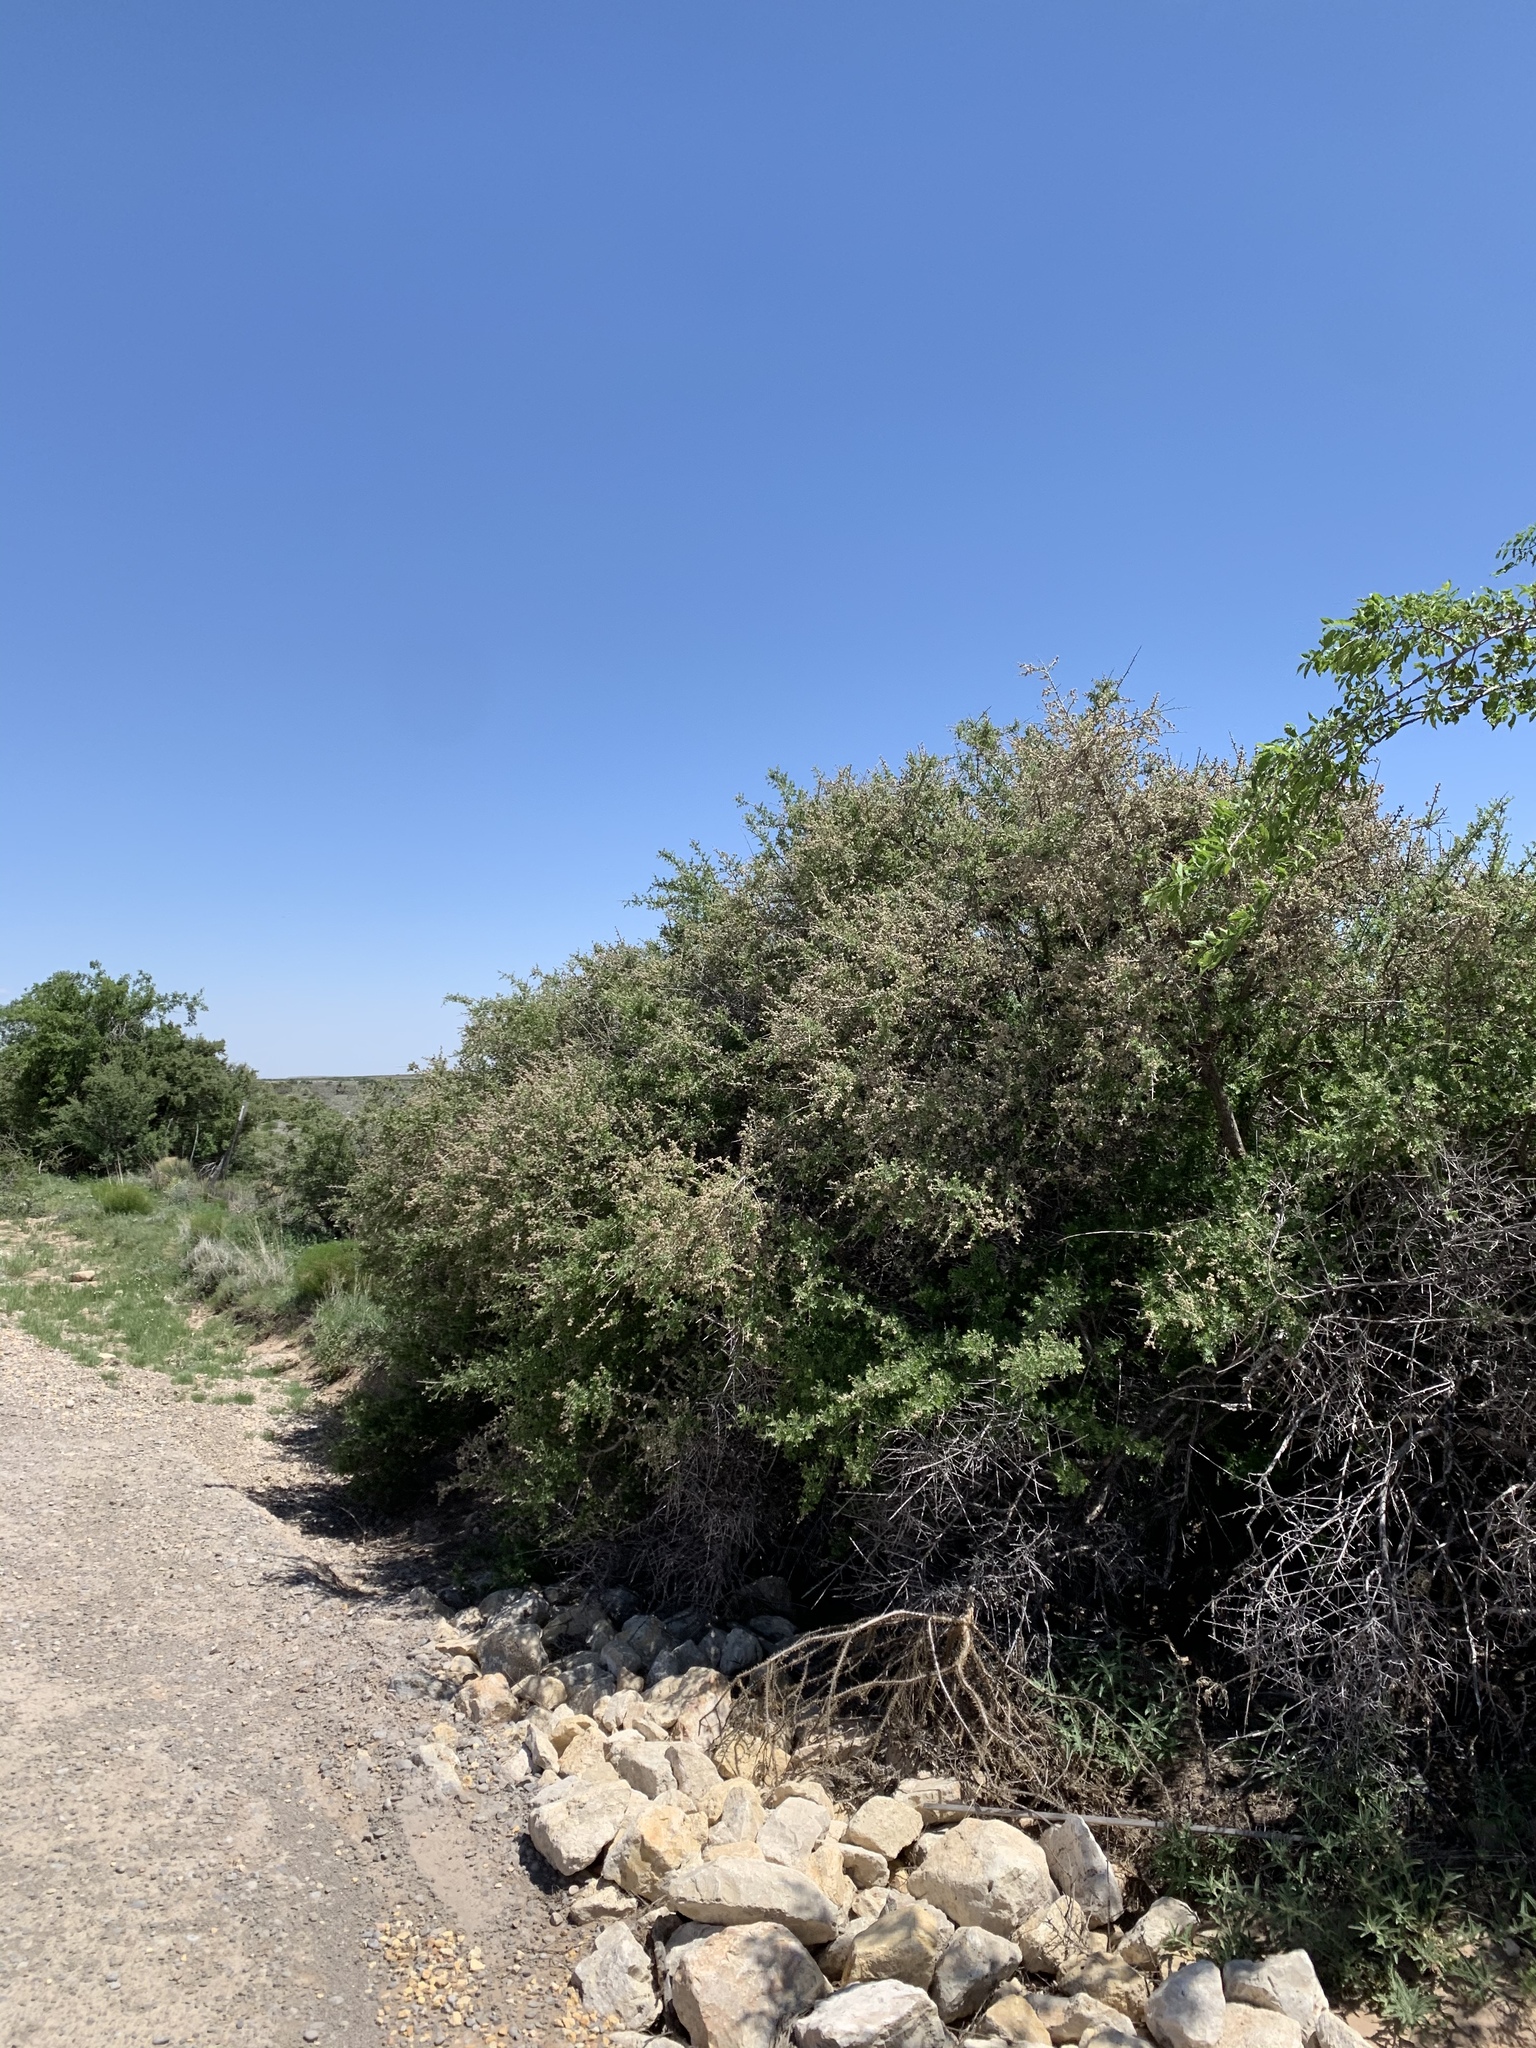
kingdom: Plantae
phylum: Tracheophyta
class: Magnoliopsida
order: Sapindales
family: Anacardiaceae
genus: Rhus
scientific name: Rhus microphylla
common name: Desert sumac
